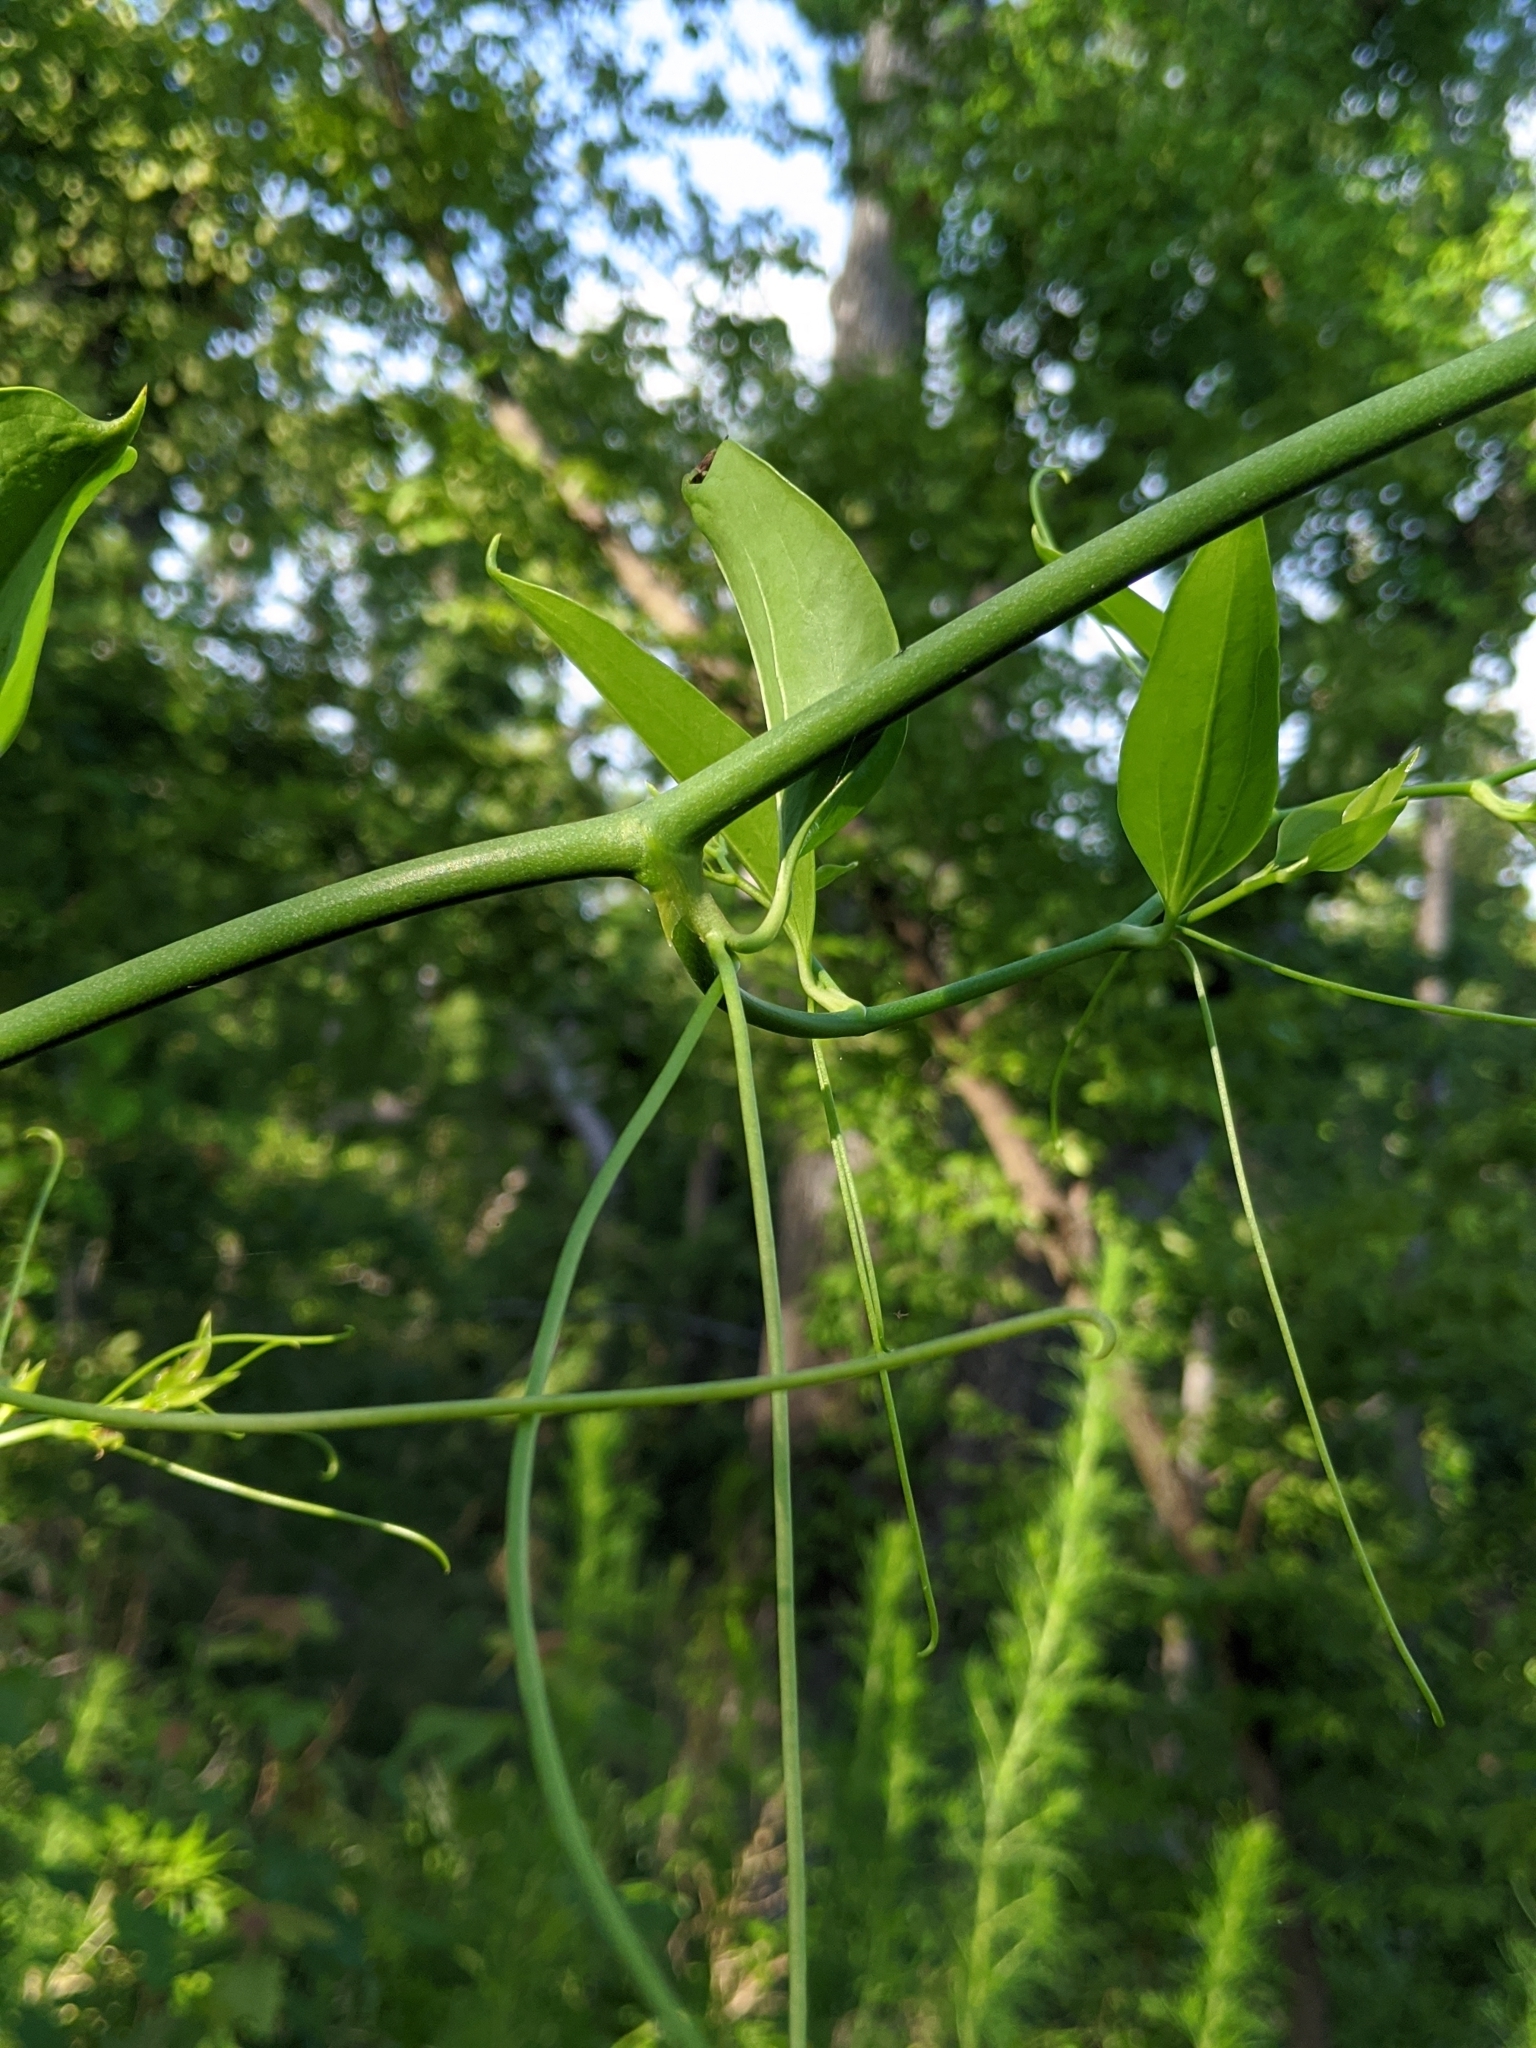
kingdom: Plantae
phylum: Tracheophyta
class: Liliopsida
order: Liliales
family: Smilacaceae
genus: Smilax
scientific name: Smilax laurifolia
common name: Bamboovine
